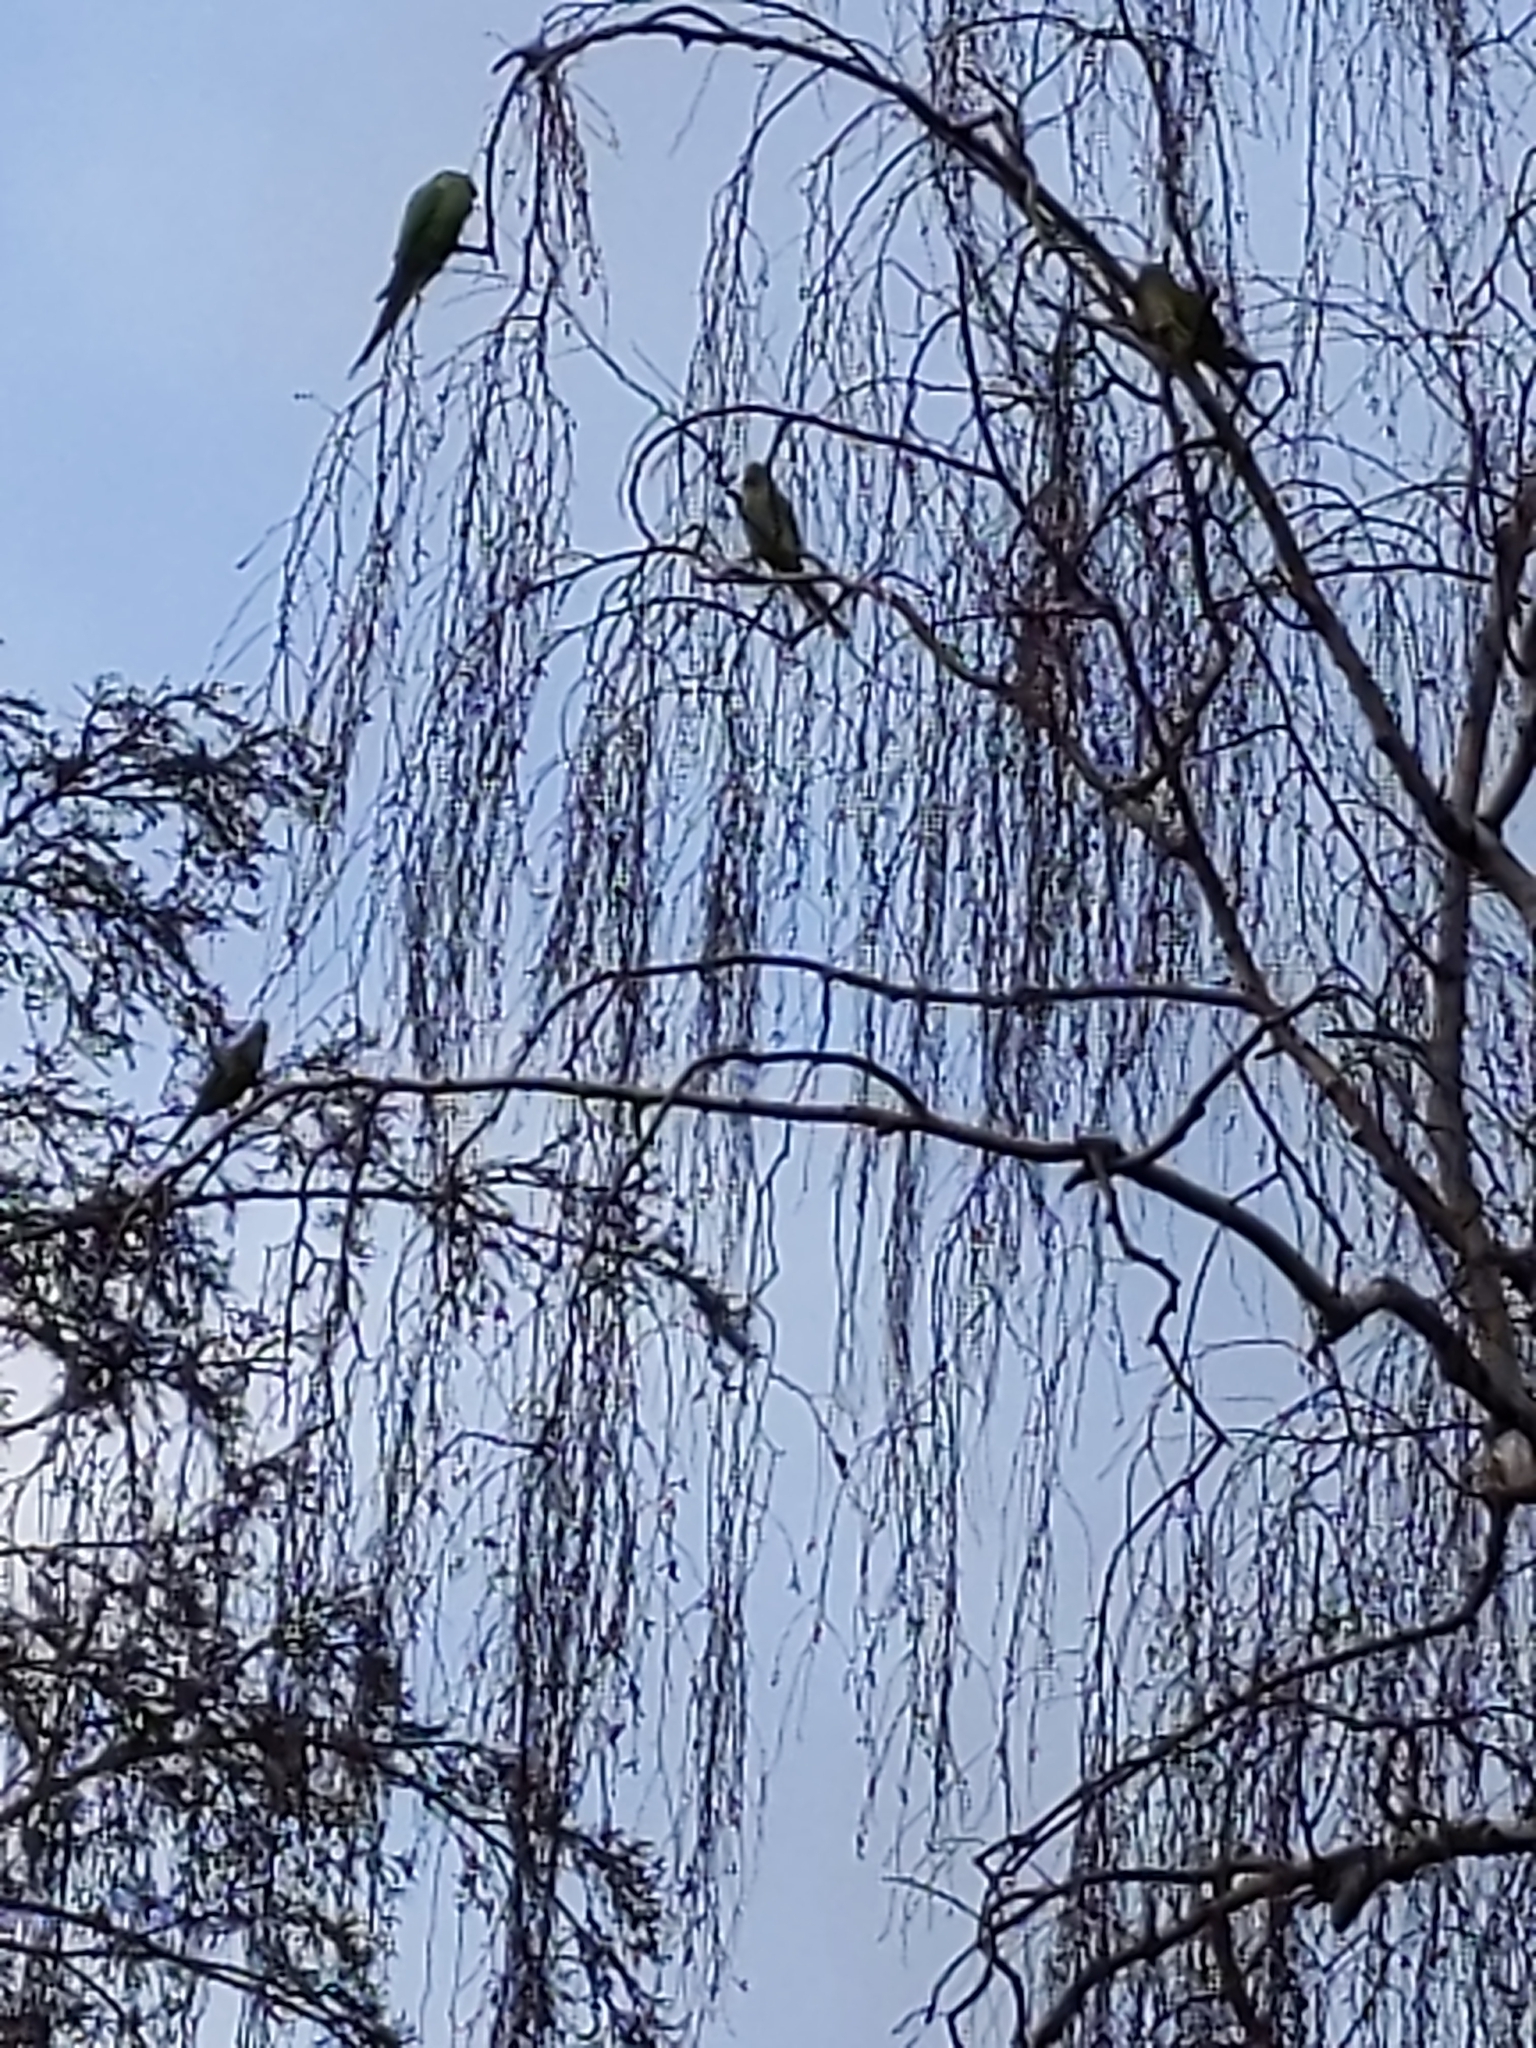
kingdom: Animalia
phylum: Chordata
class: Aves
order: Psittaciformes
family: Psittacidae
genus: Psittacula
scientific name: Psittacula krameri
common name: Rose-ringed parakeet
